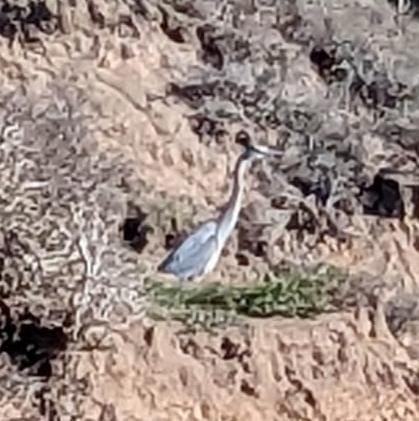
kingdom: Animalia
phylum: Chordata
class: Aves
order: Pelecaniformes
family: Ardeidae
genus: Ardea
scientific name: Ardea herodias
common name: Great blue heron
